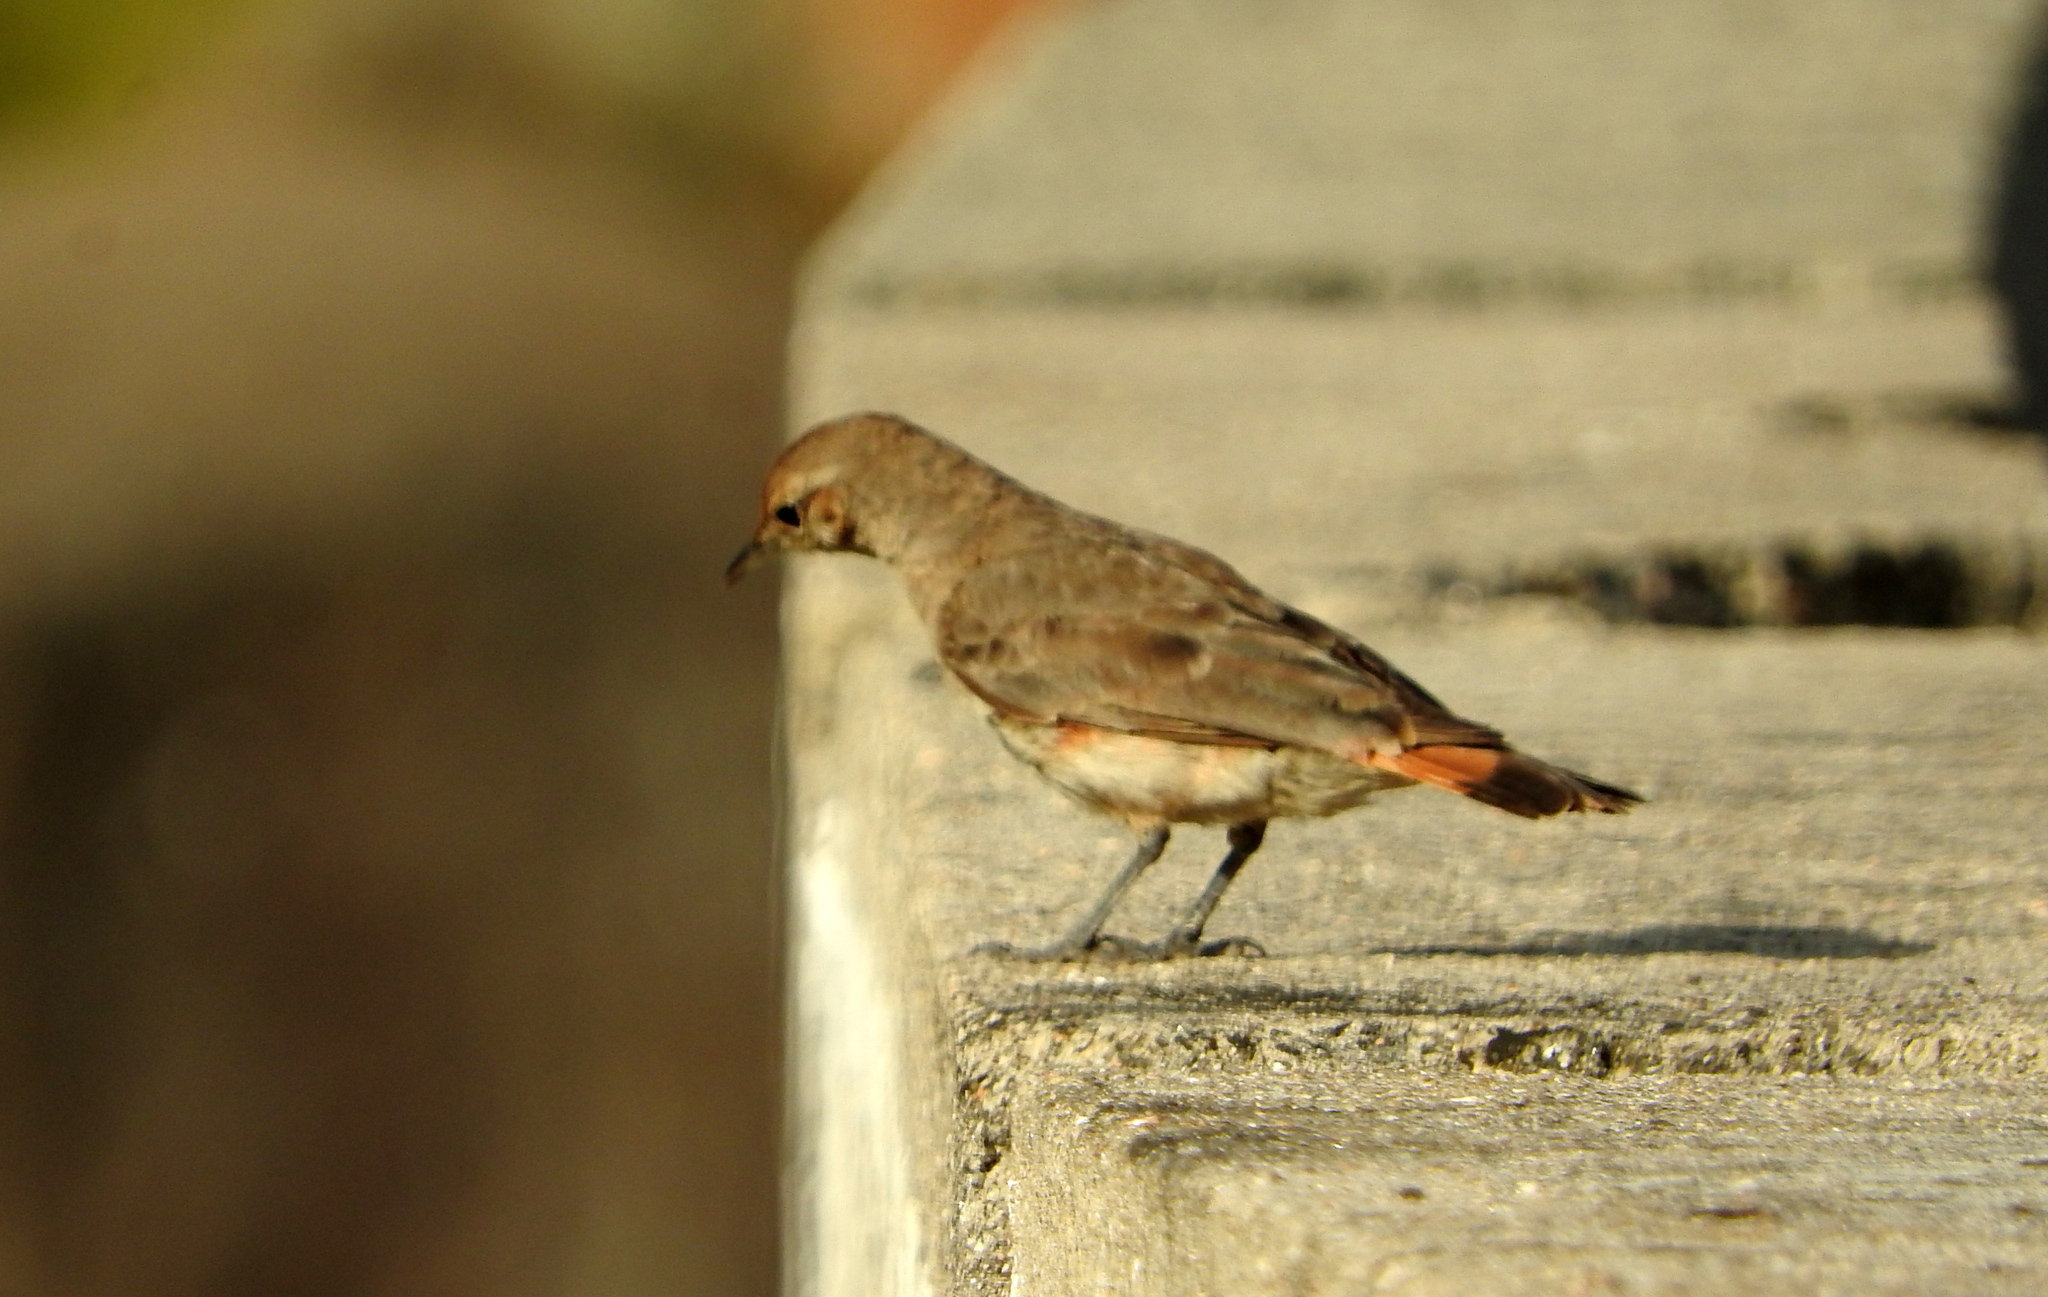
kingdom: Animalia
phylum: Chordata
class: Aves
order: Passeriformes
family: Furnariidae
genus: Geositta
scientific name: Geositta rufipennis
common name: Rufous-banded miner
